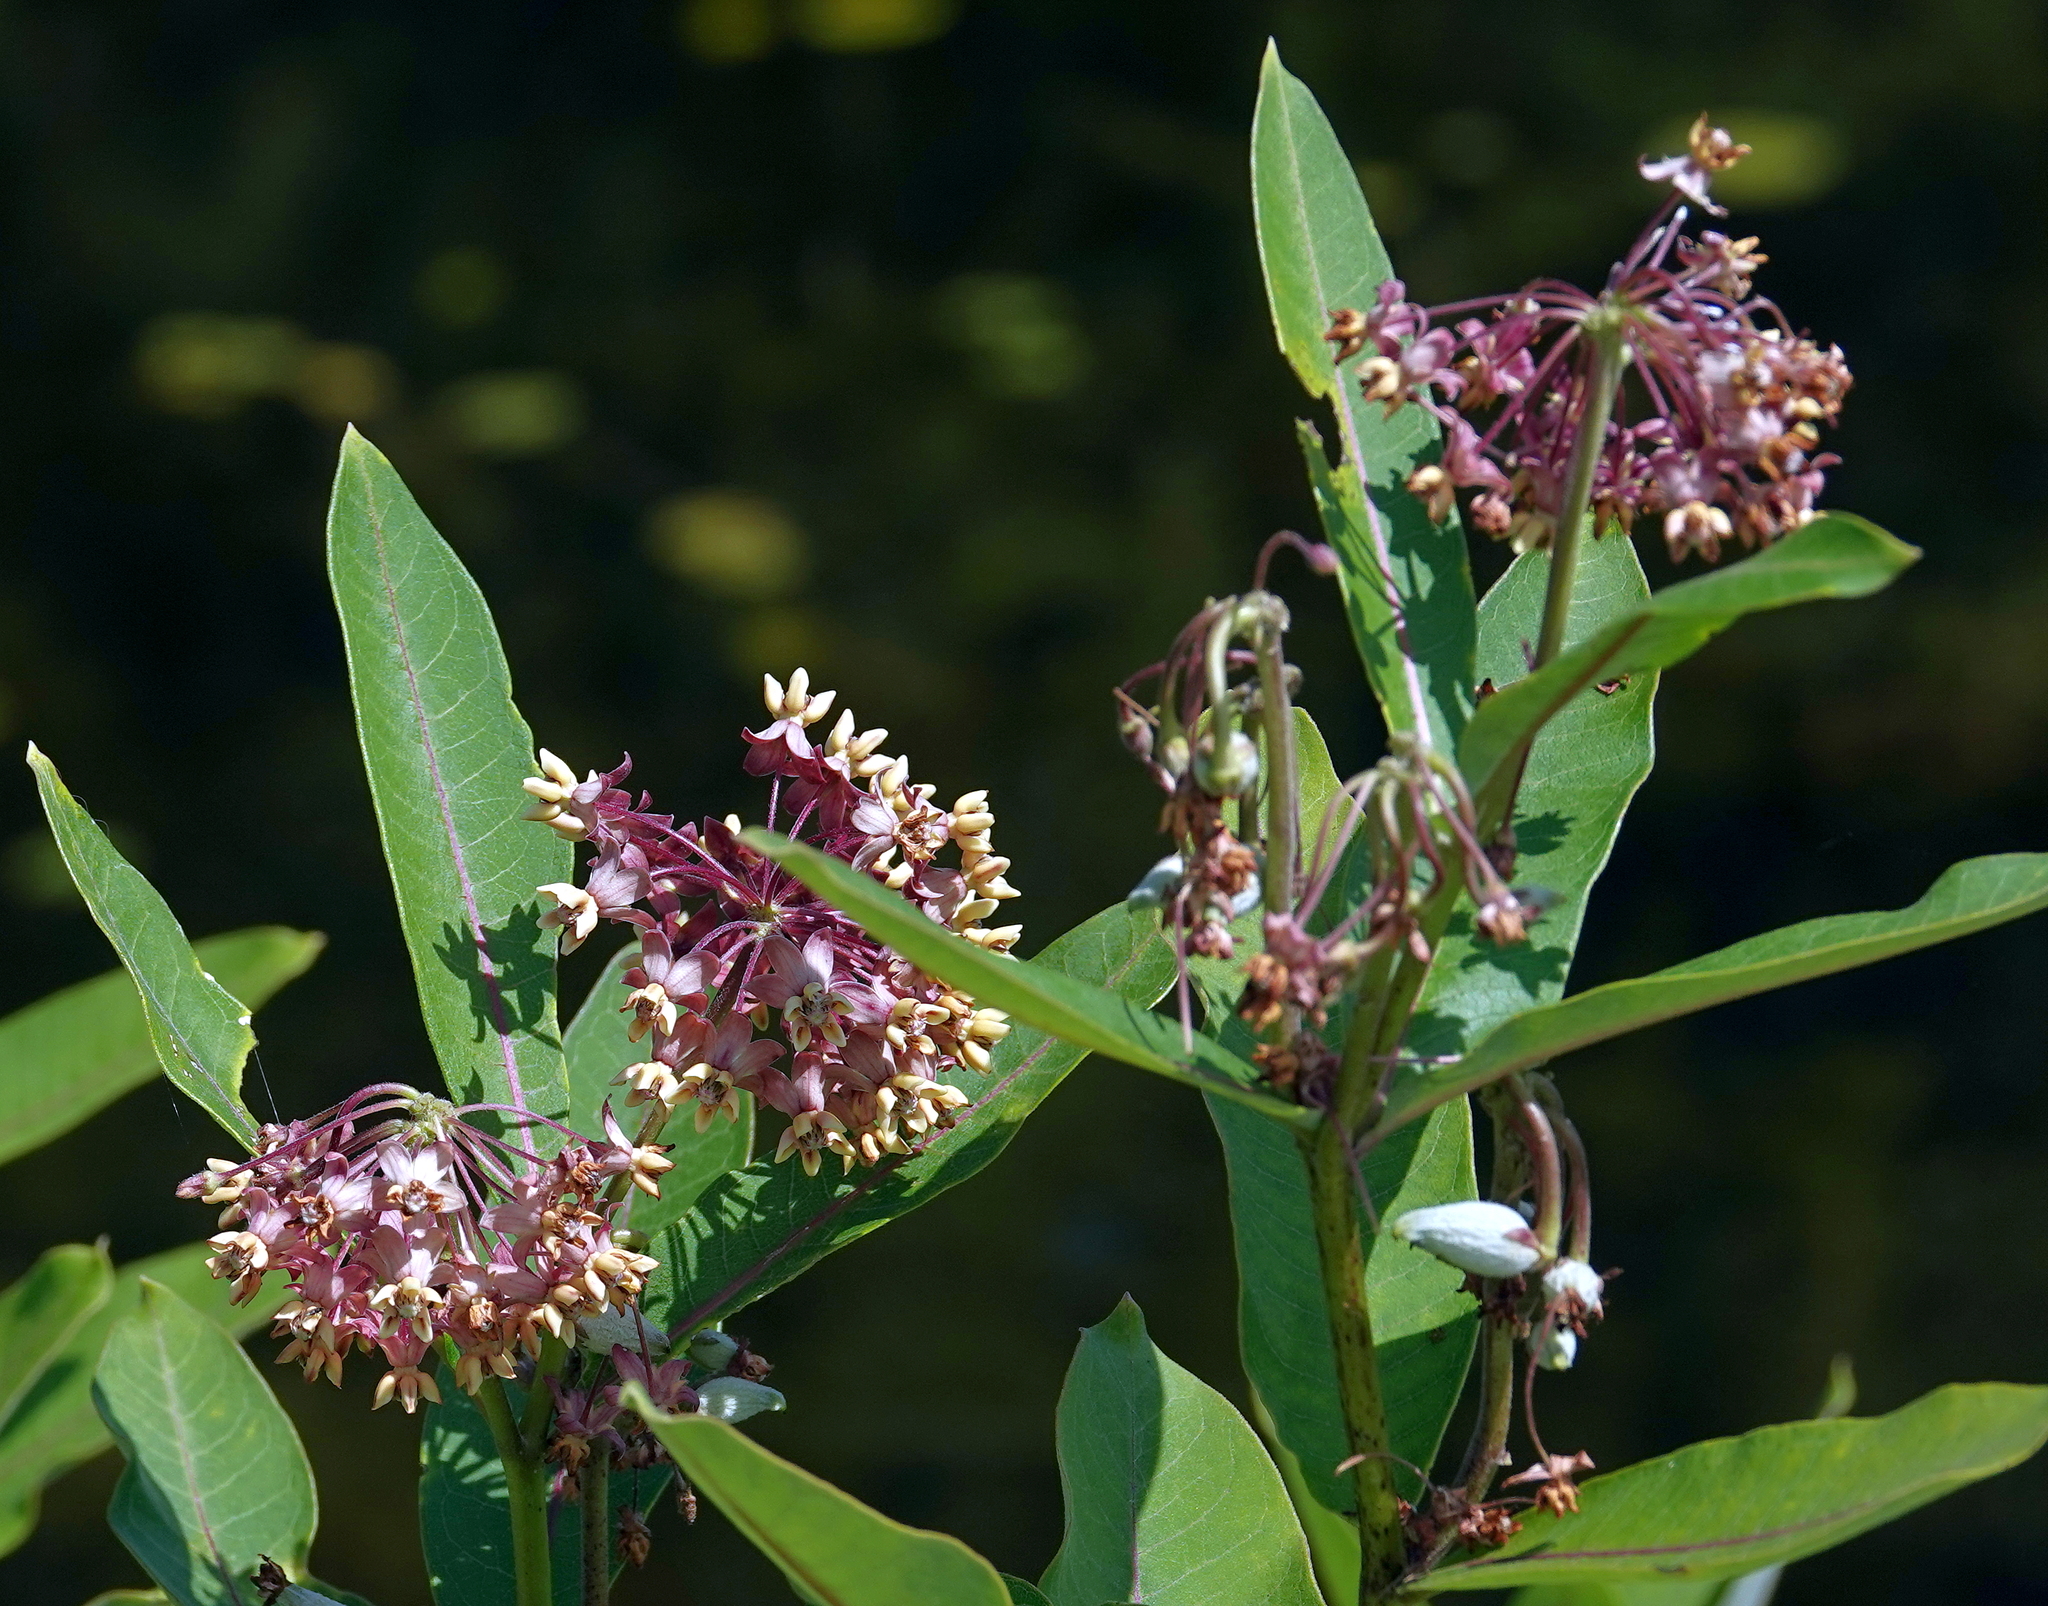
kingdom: Plantae
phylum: Tracheophyta
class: Magnoliopsida
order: Gentianales
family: Apocynaceae
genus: Asclepias
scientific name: Asclepias syriaca
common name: Common milkweed
